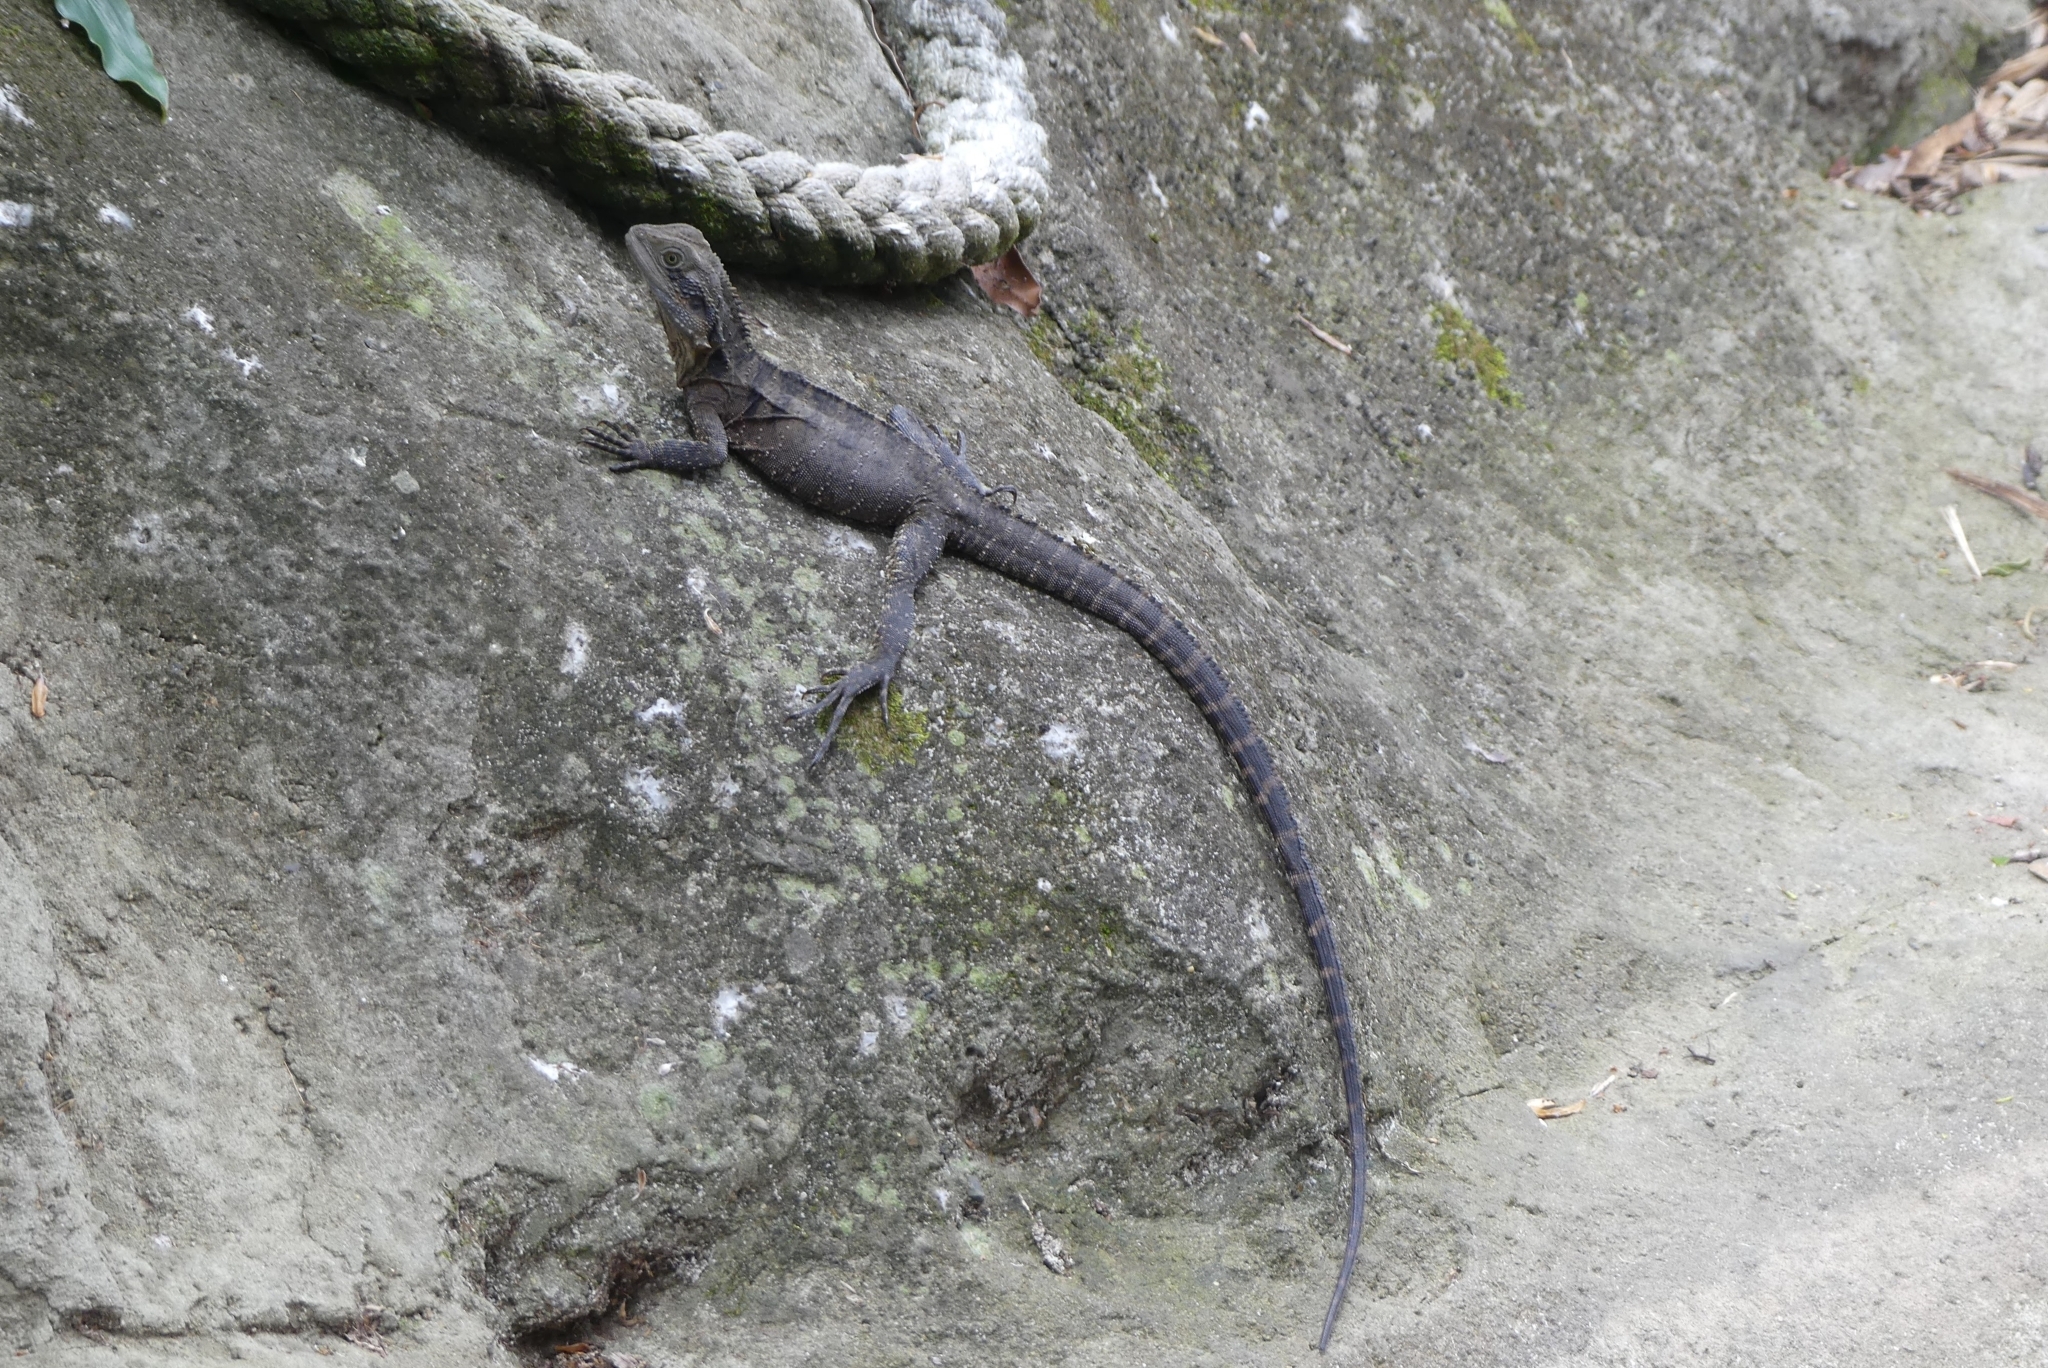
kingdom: Animalia
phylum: Chordata
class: Squamata
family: Agamidae
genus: Intellagama
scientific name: Intellagama lesueurii
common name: Eastern water dragon
